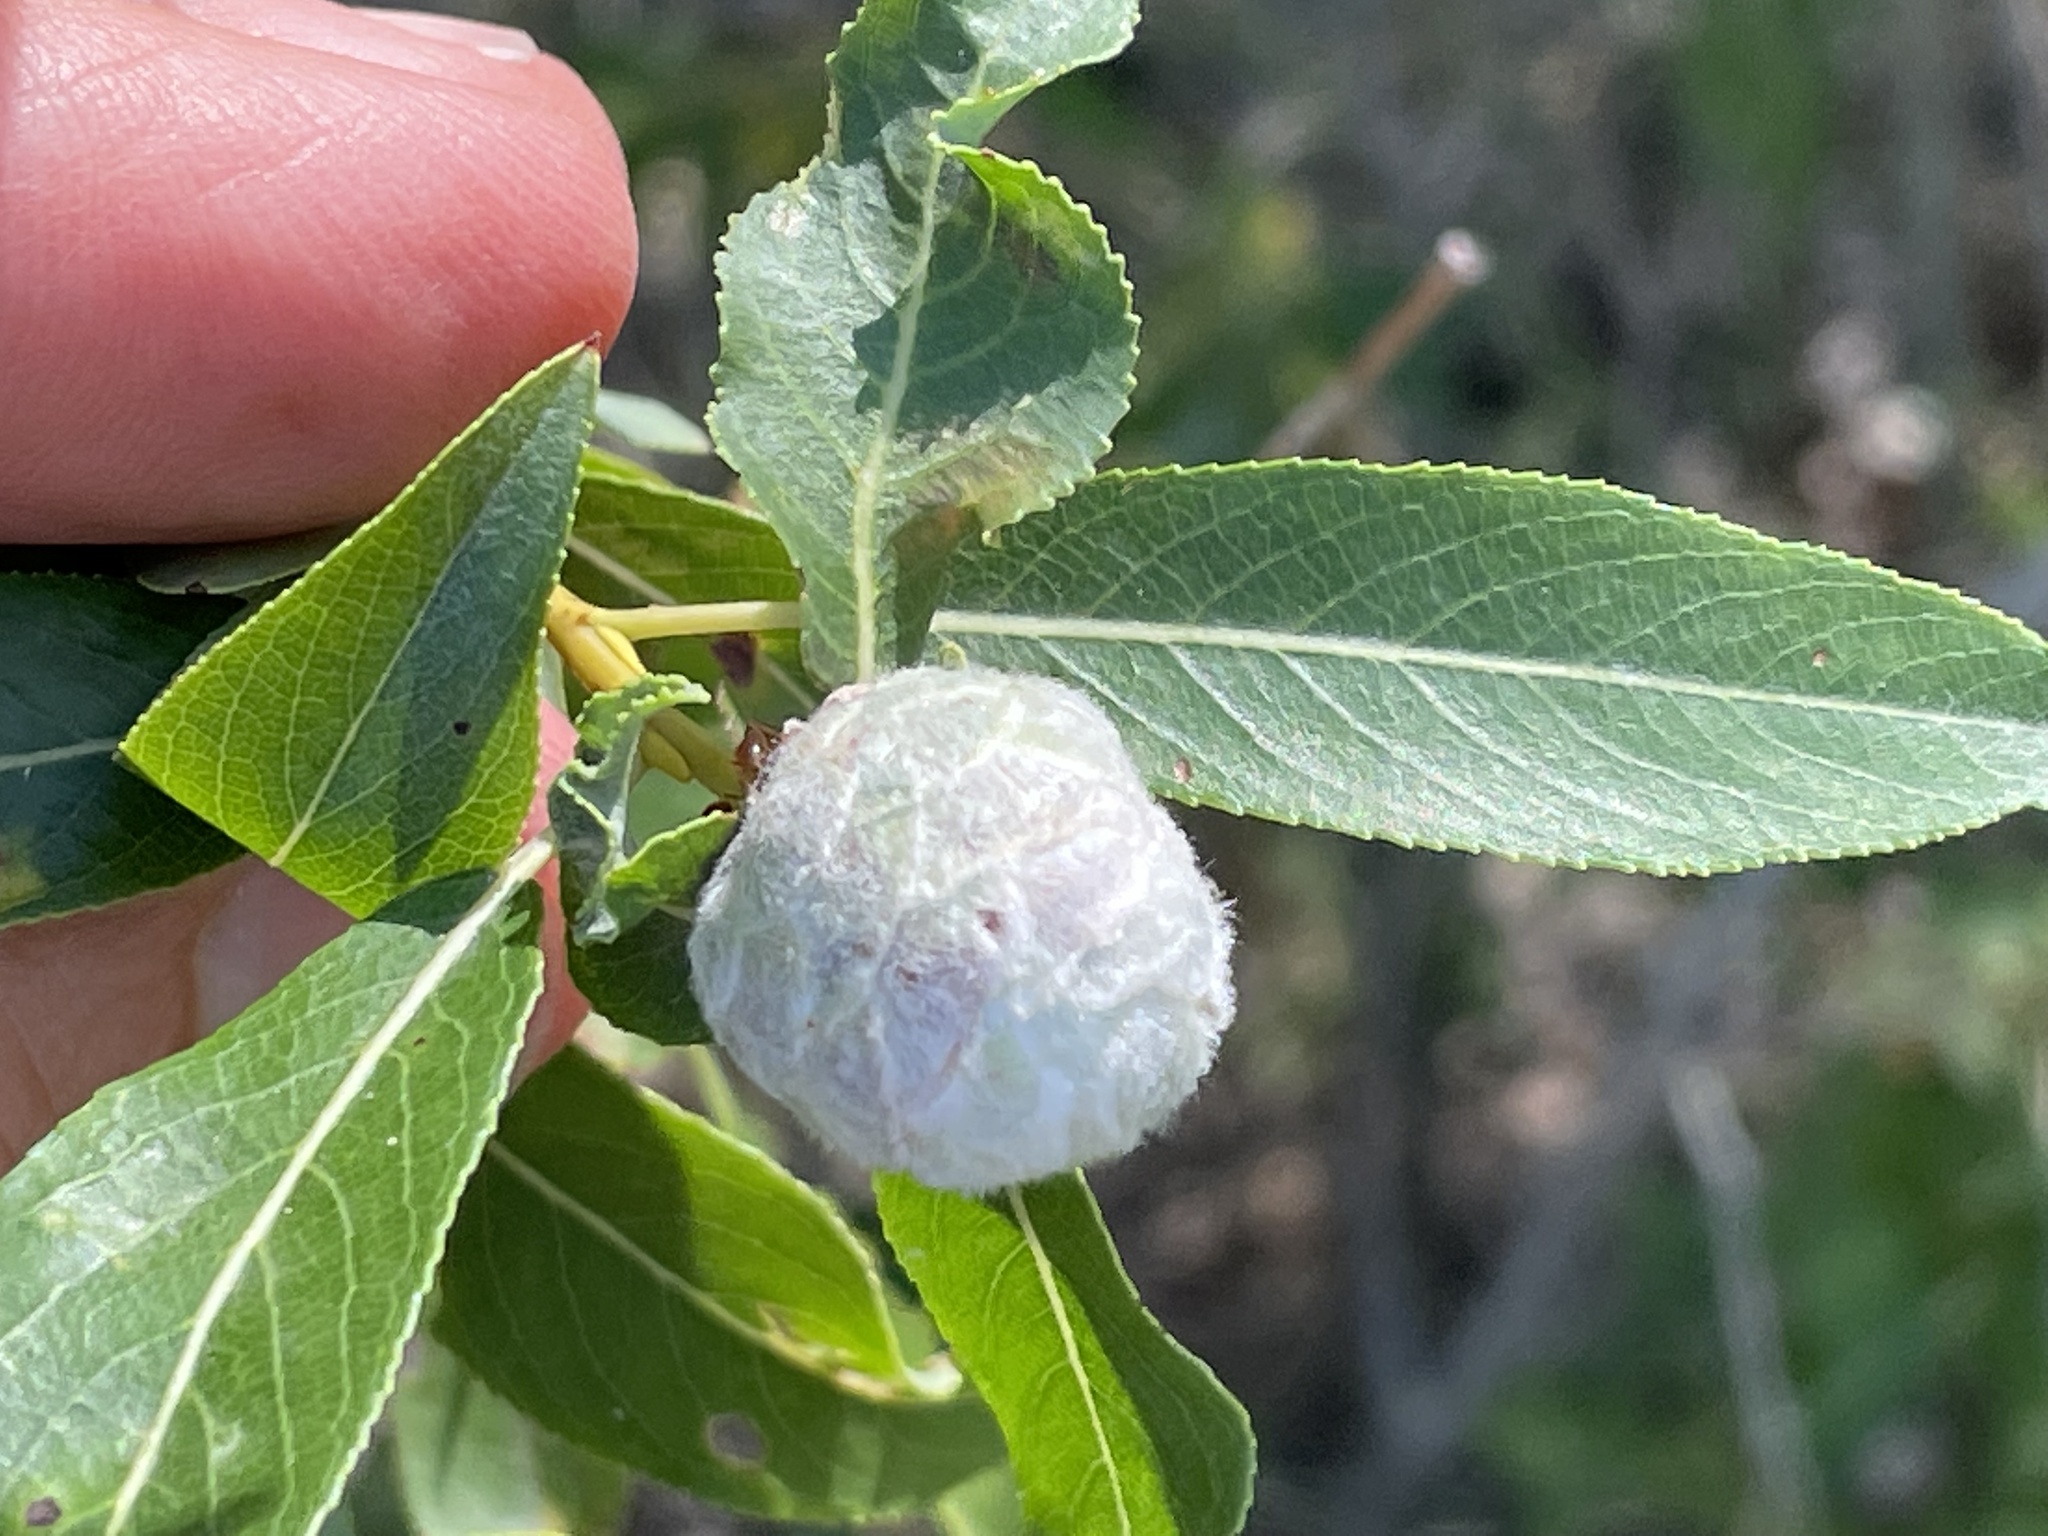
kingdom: Animalia
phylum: Arthropoda
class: Insecta
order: Diptera
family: Cecidomyiidae
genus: Rabdophaga
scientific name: Rabdophaga strobiloides
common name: Willow pinecone gall midge
